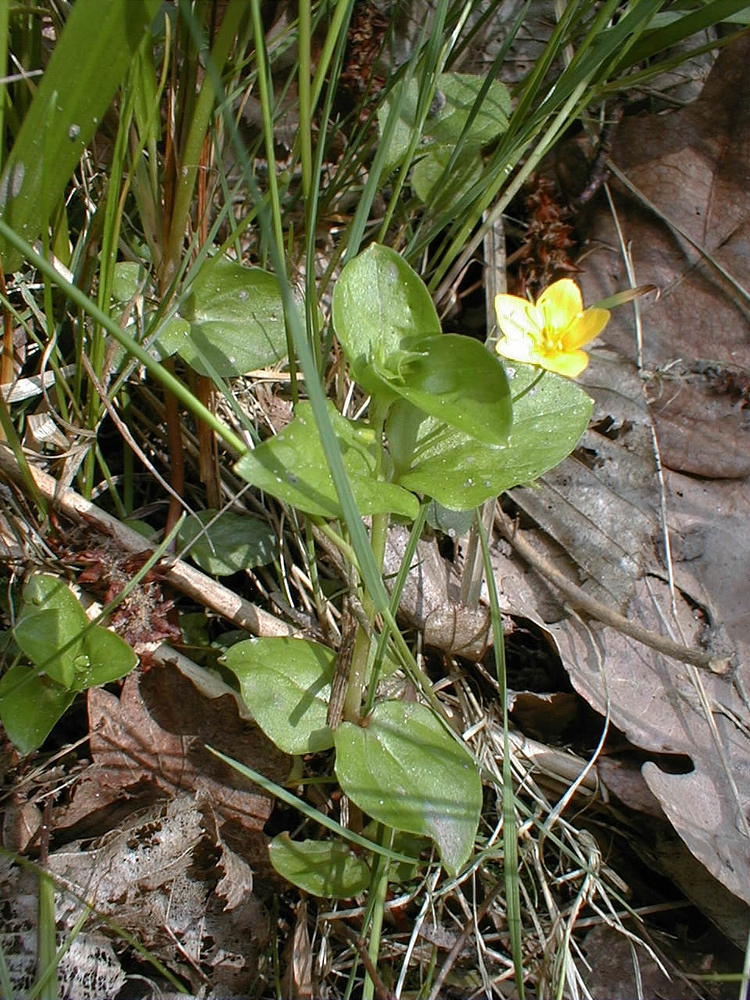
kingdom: Plantae
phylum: Tracheophyta
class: Magnoliopsida
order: Ericales
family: Primulaceae
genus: Lysimachia
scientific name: Lysimachia nemorum
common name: Yellow pimpernel
